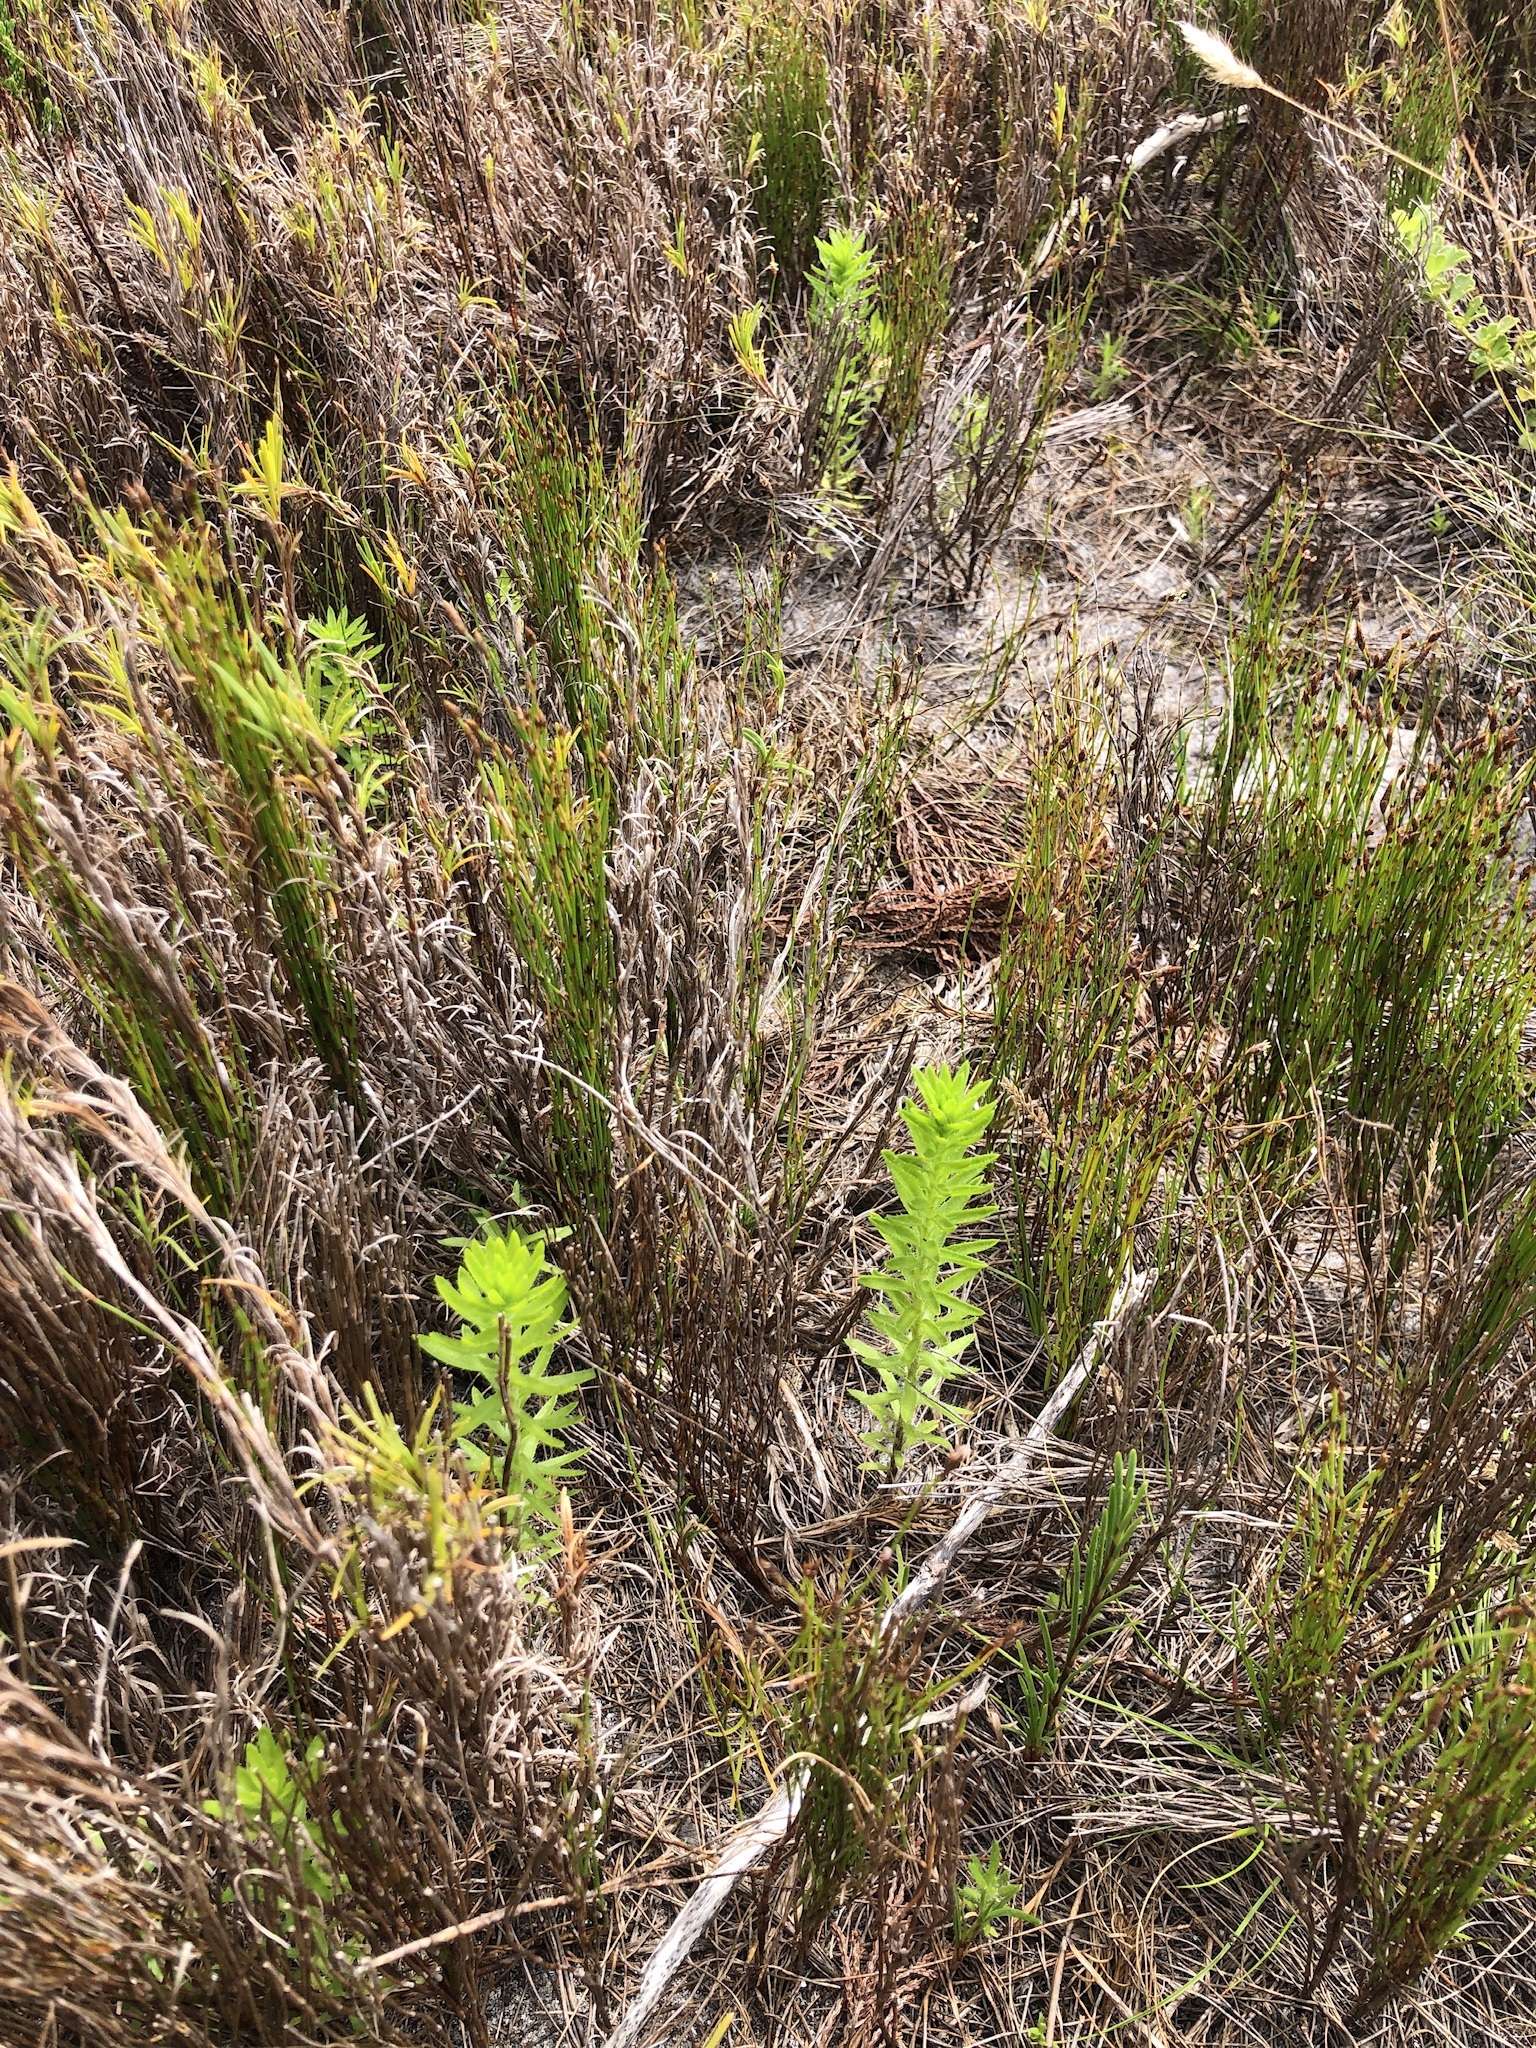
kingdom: Plantae
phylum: Tracheophyta
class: Magnoliopsida
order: Asterales
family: Asteraceae
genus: Felicia
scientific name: Felicia echinata
